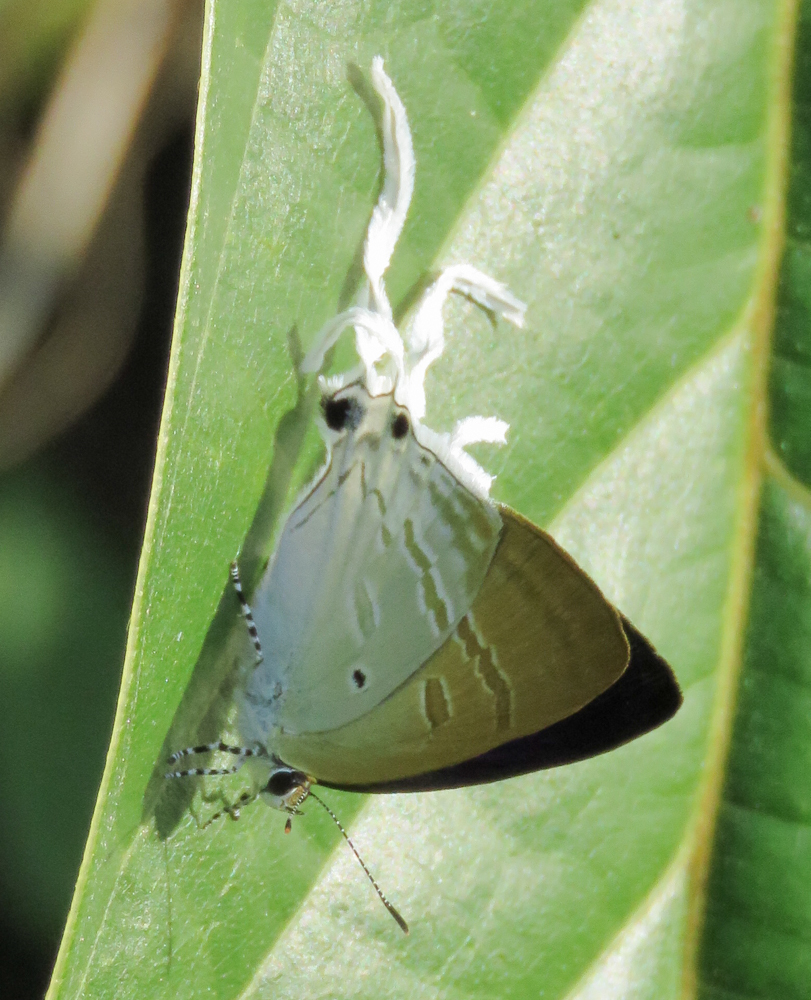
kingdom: Animalia
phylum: Arthropoda
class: Insecta
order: Lepidoptera
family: Lycaenidae
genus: Zeltus
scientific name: Zeltus amasa
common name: Fluffy tit
